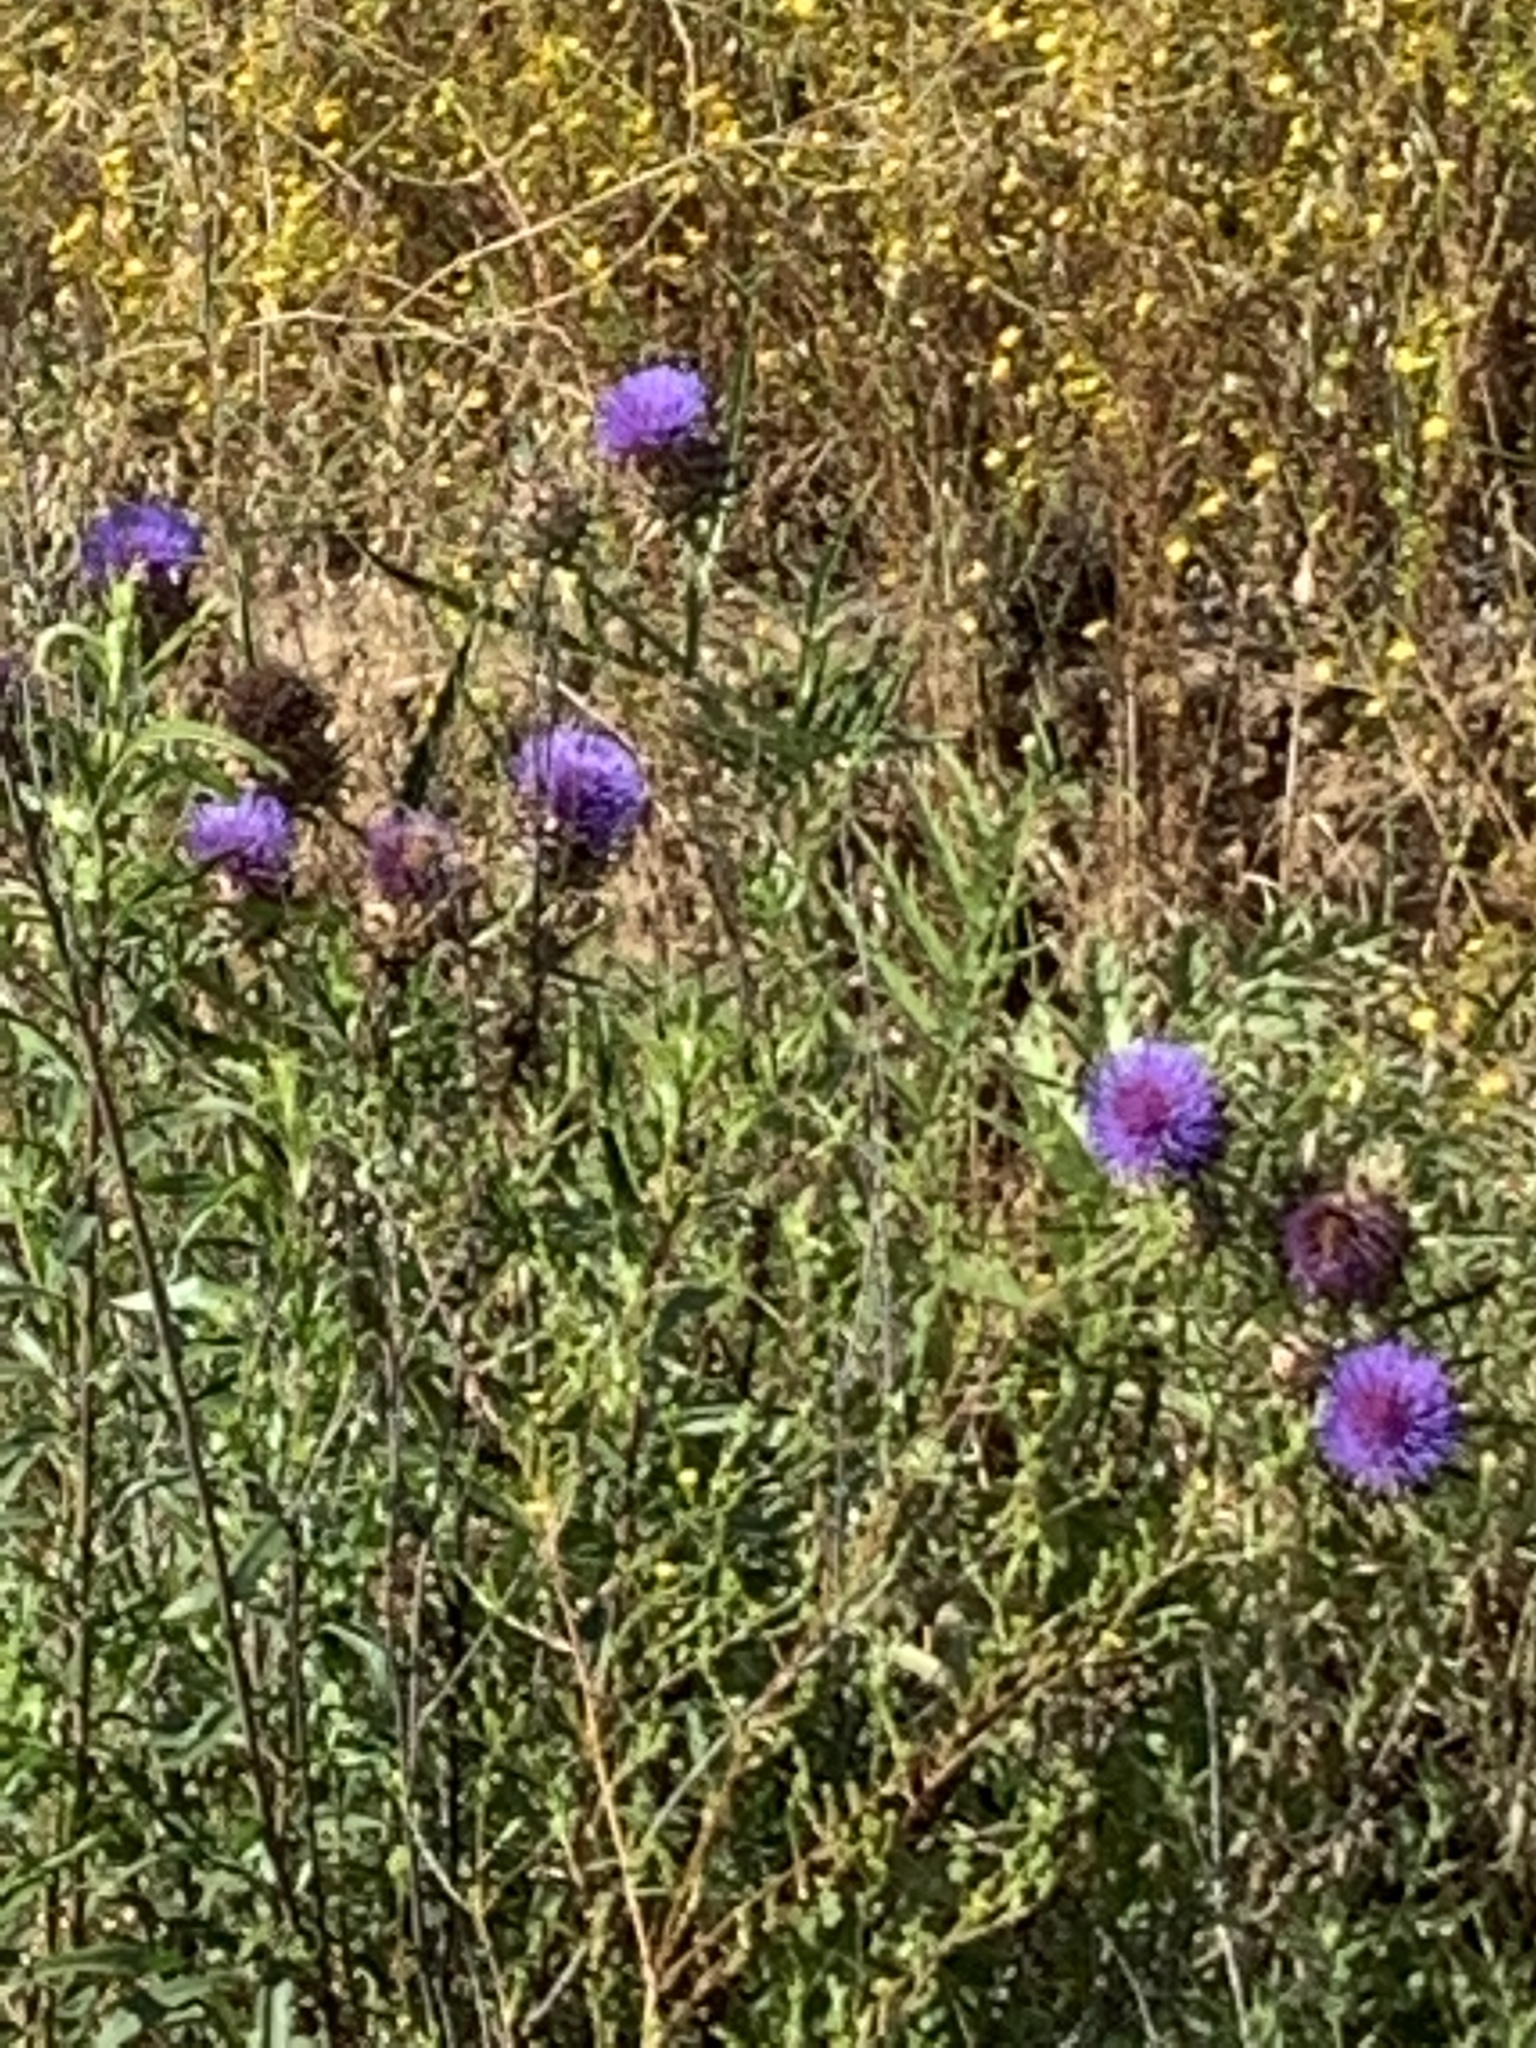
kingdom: Plantae
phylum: Tracheophyta
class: Magnoliopsida
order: Asterales
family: Asteraceae
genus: Cynara
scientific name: Cynara cardunculus
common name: Globe artichoke
